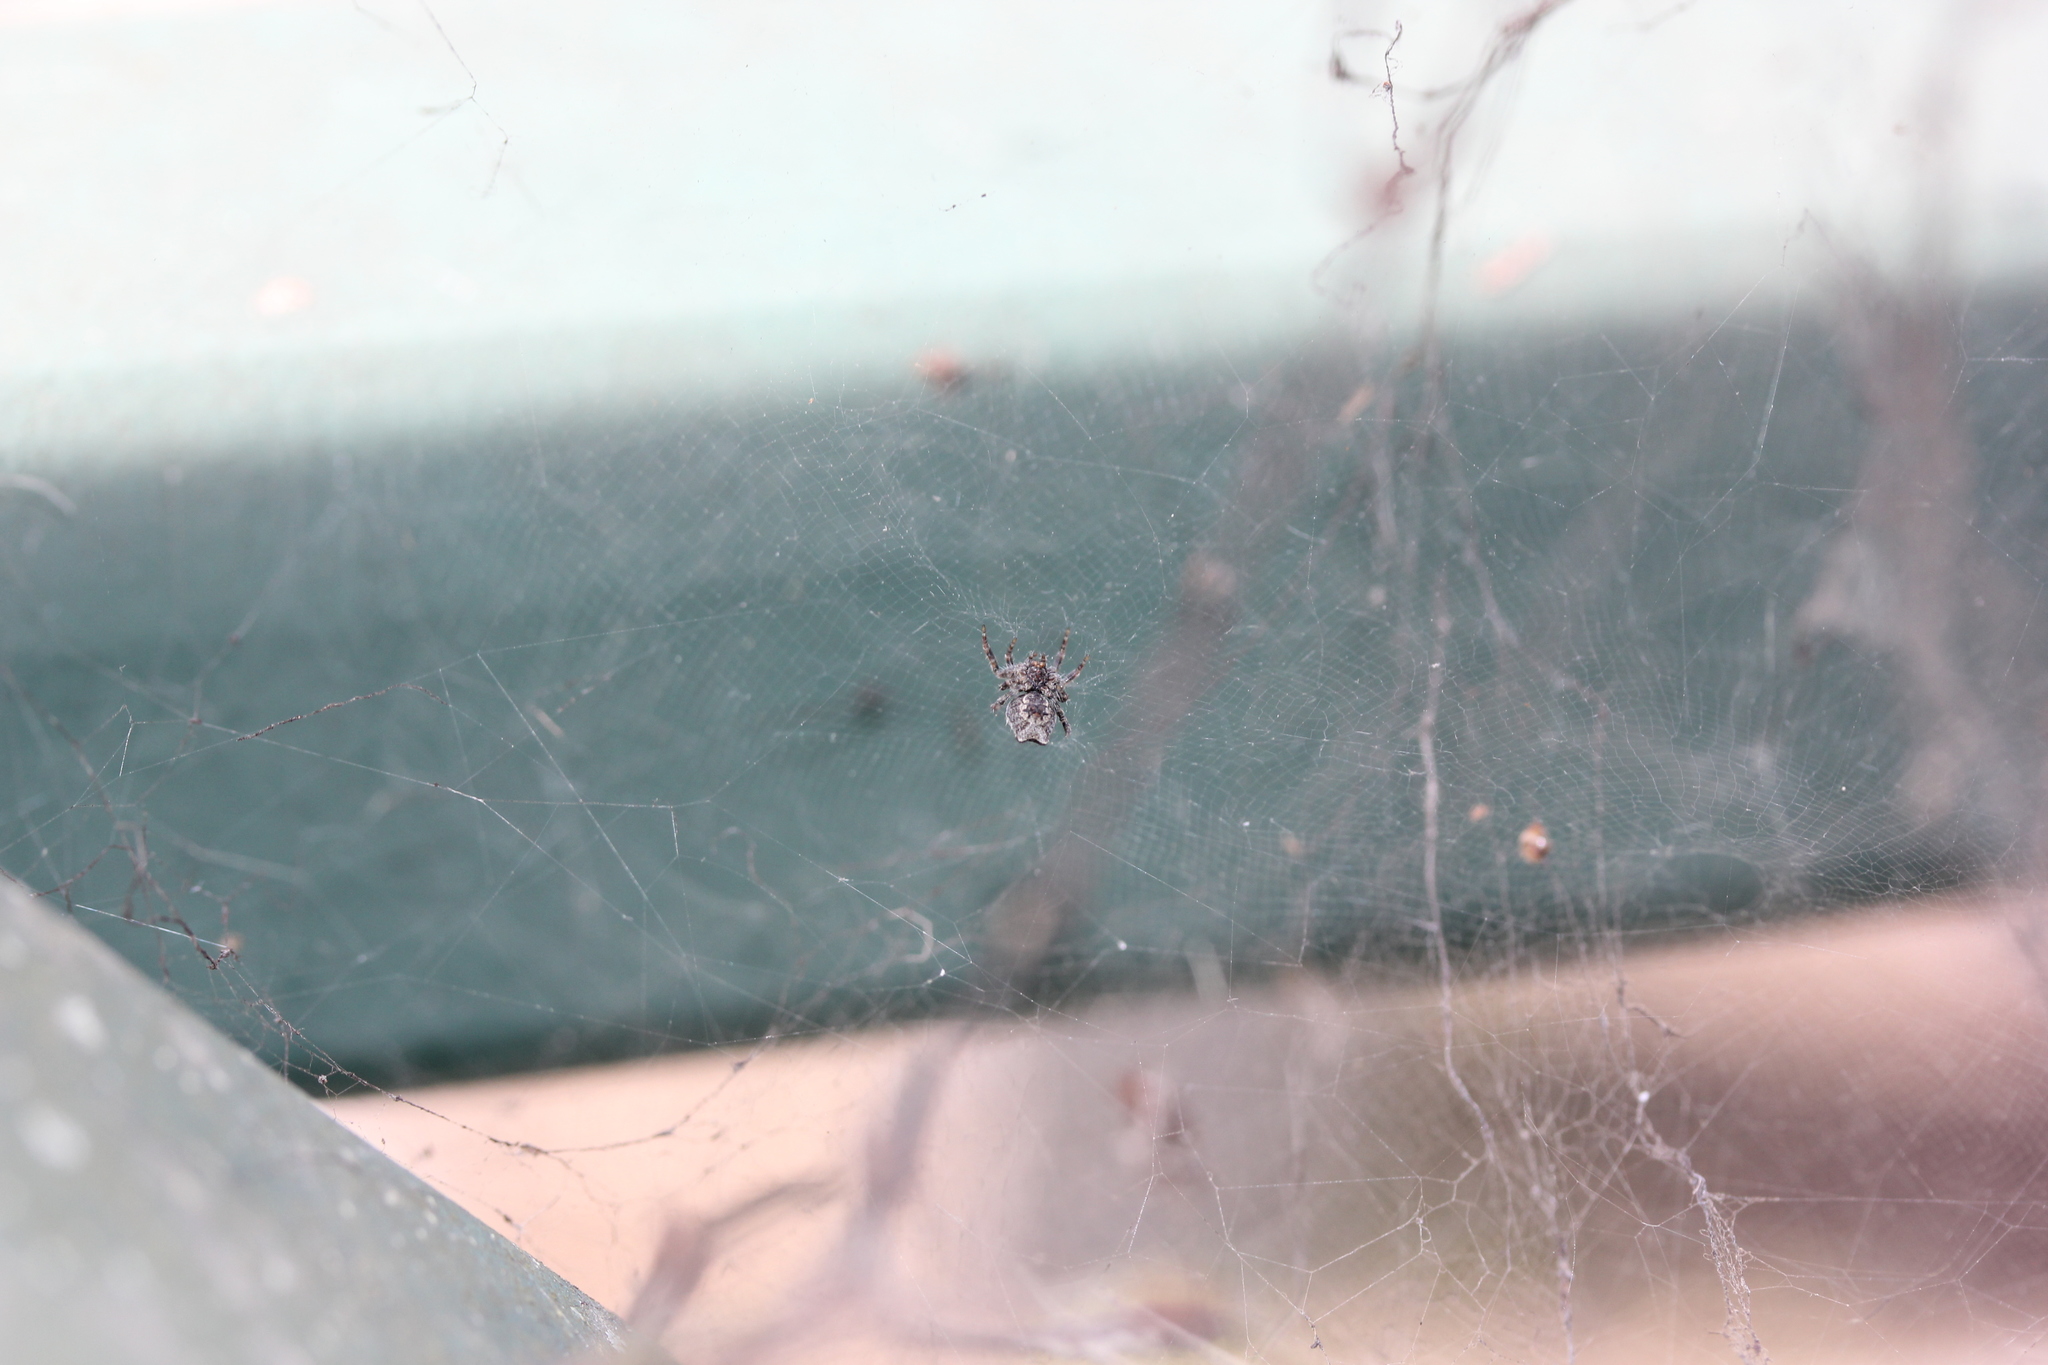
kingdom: Animalia
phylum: Arthropoda
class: Arachnida
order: Araneae
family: Araneidae
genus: Cyrtophora
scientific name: Cyrtophora citricola
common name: Orb weavers
